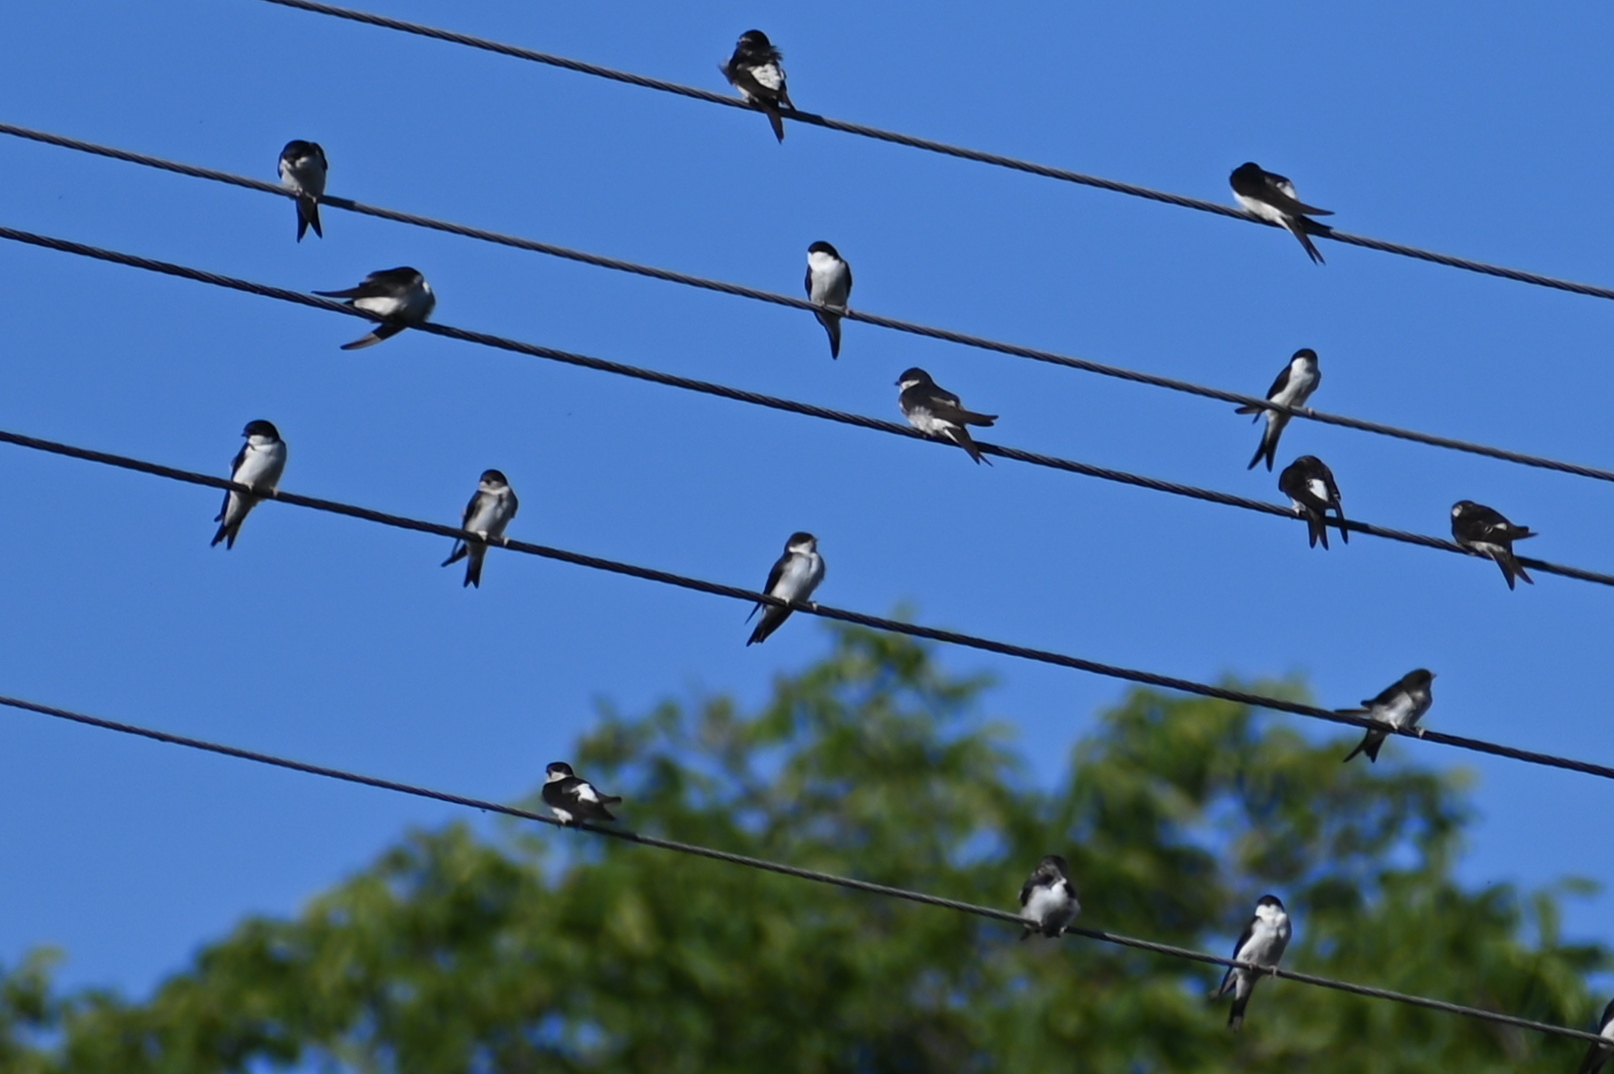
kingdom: Animalia
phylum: Chordata
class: Aves
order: Passeriformes
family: Hirundinidae
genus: Delichon
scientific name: Delichon urbicum
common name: Common house martin
